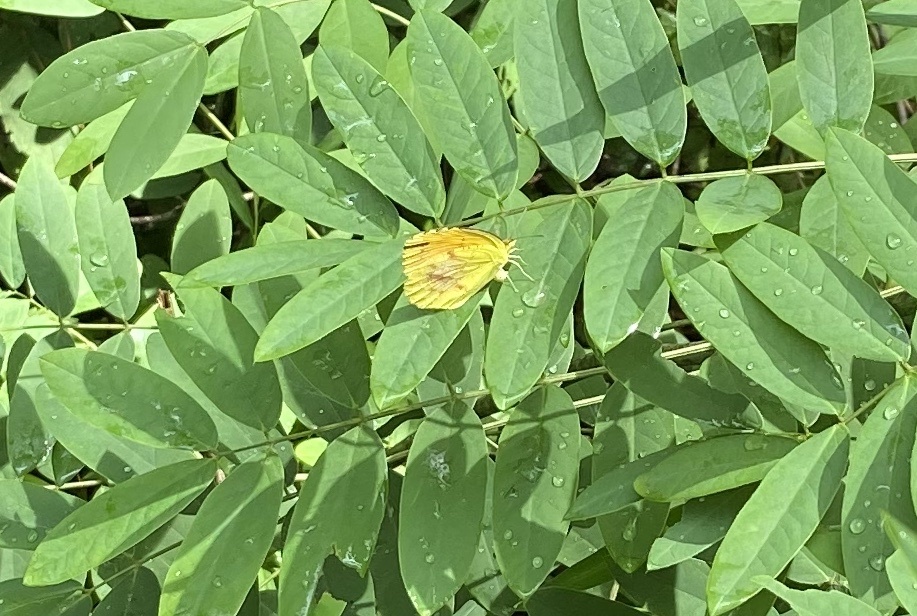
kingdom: Animalia
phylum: Arthropoda
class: Insecta
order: Lepidoptera
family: Pieridae
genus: Abaeis
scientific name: Abaeis nicippe
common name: Sleepy orange
